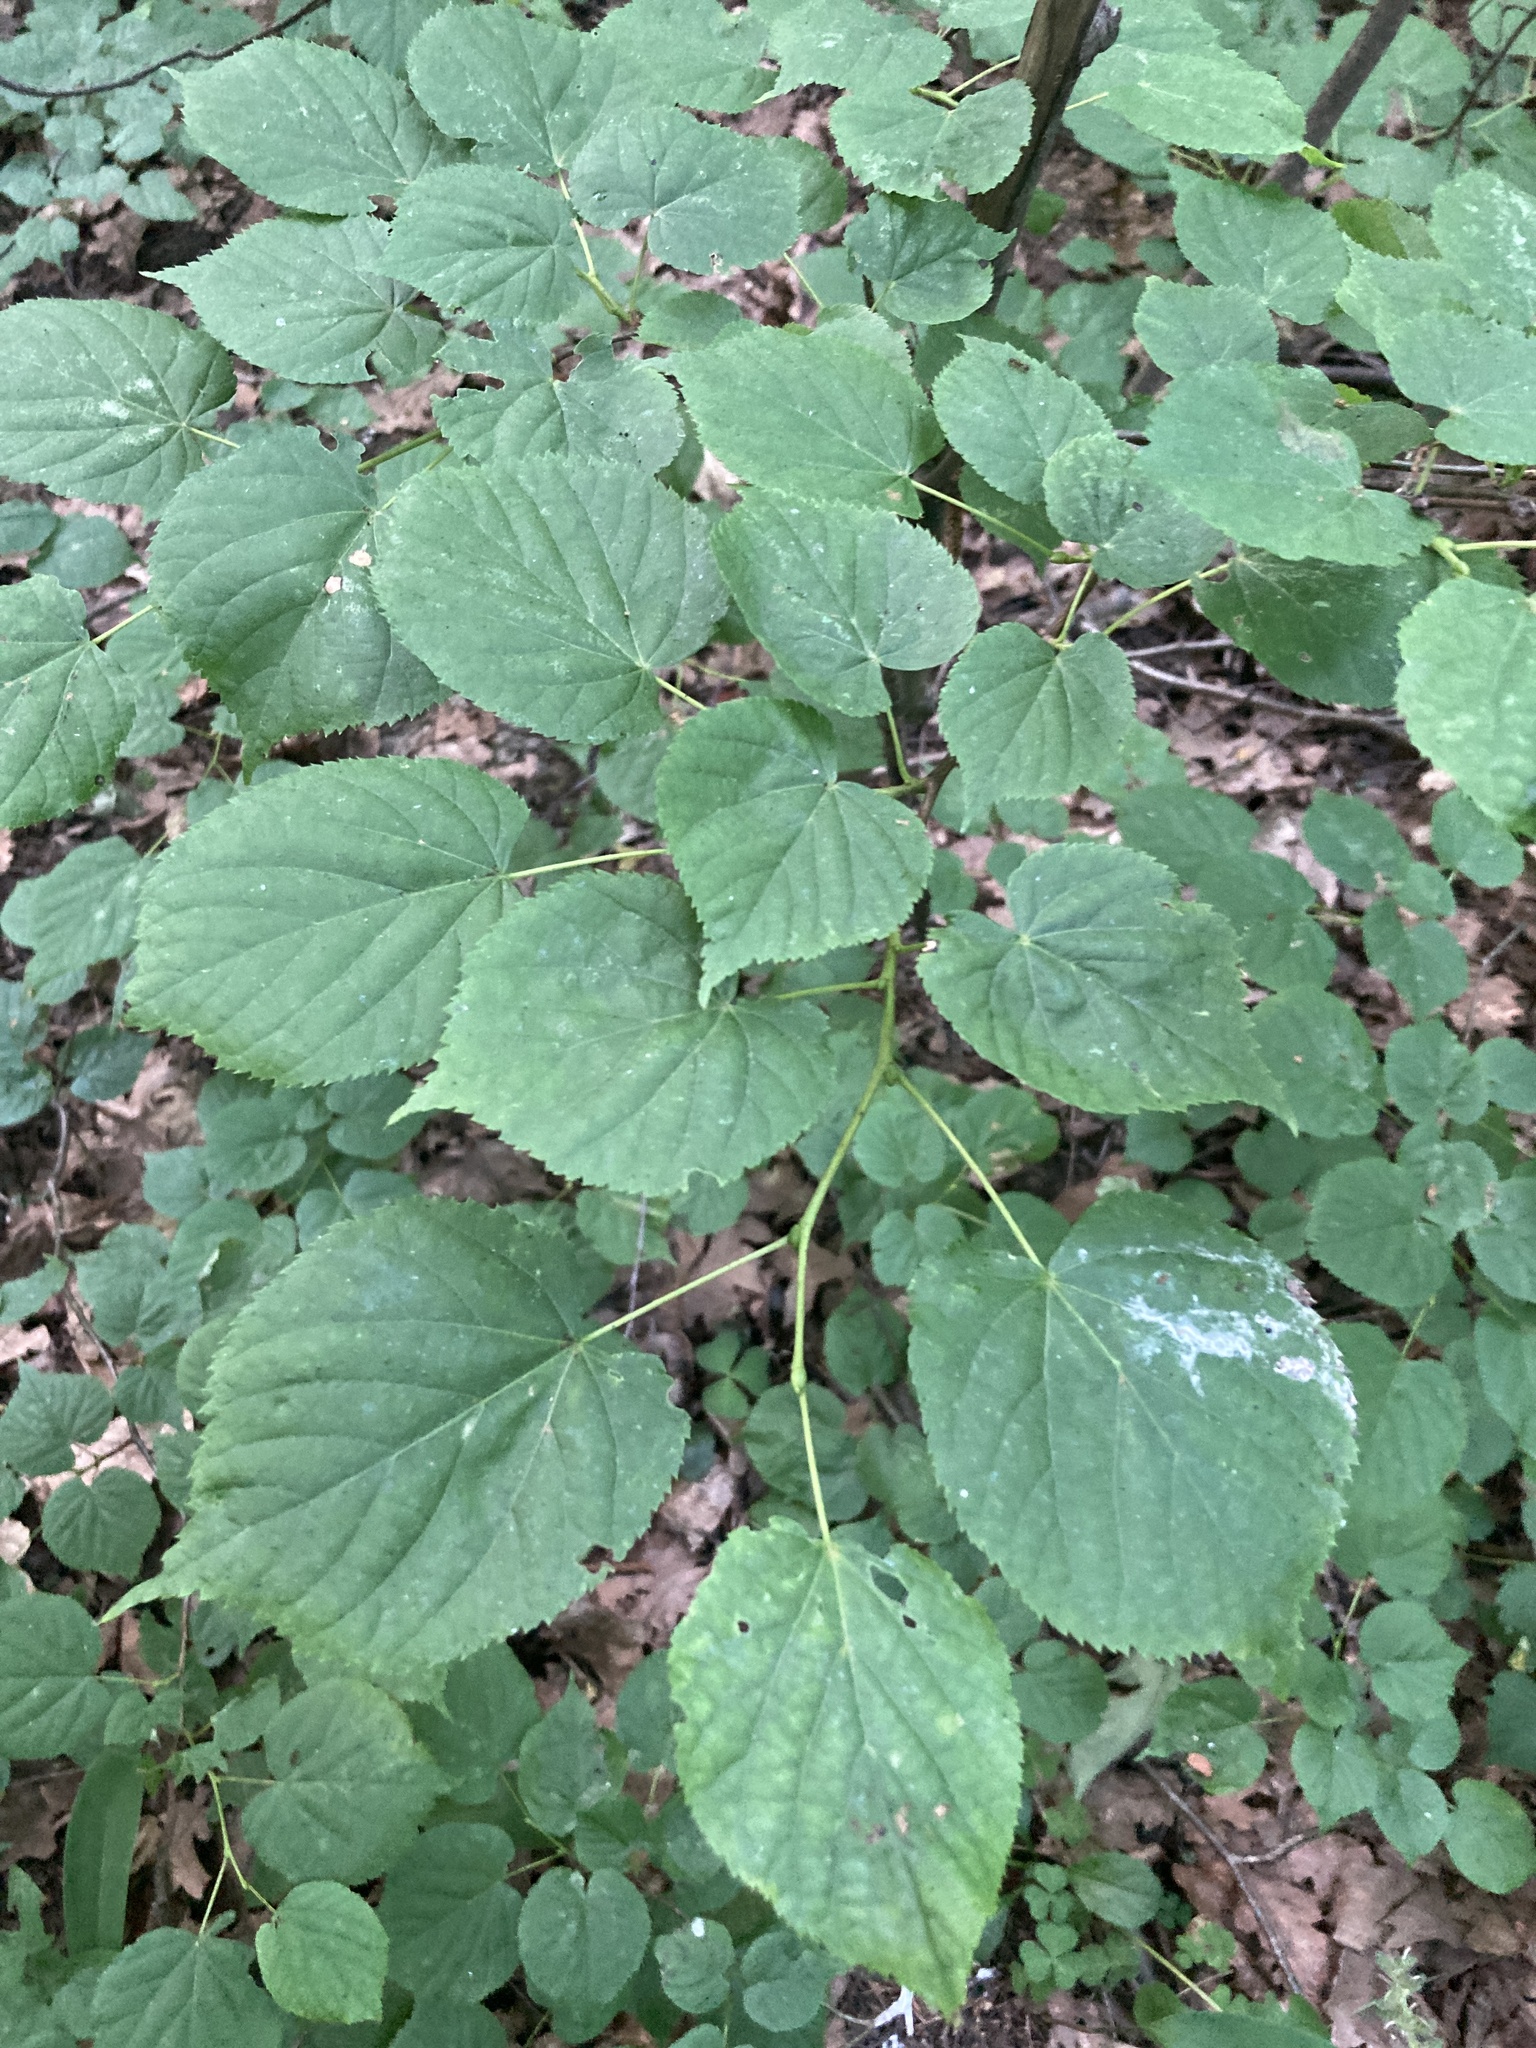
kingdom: Plantae
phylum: Tracheophyta
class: Magnoliopsida
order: Malvales
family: Malvaceae
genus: Tilia
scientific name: Tilia cordata
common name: Small-leaved lime
